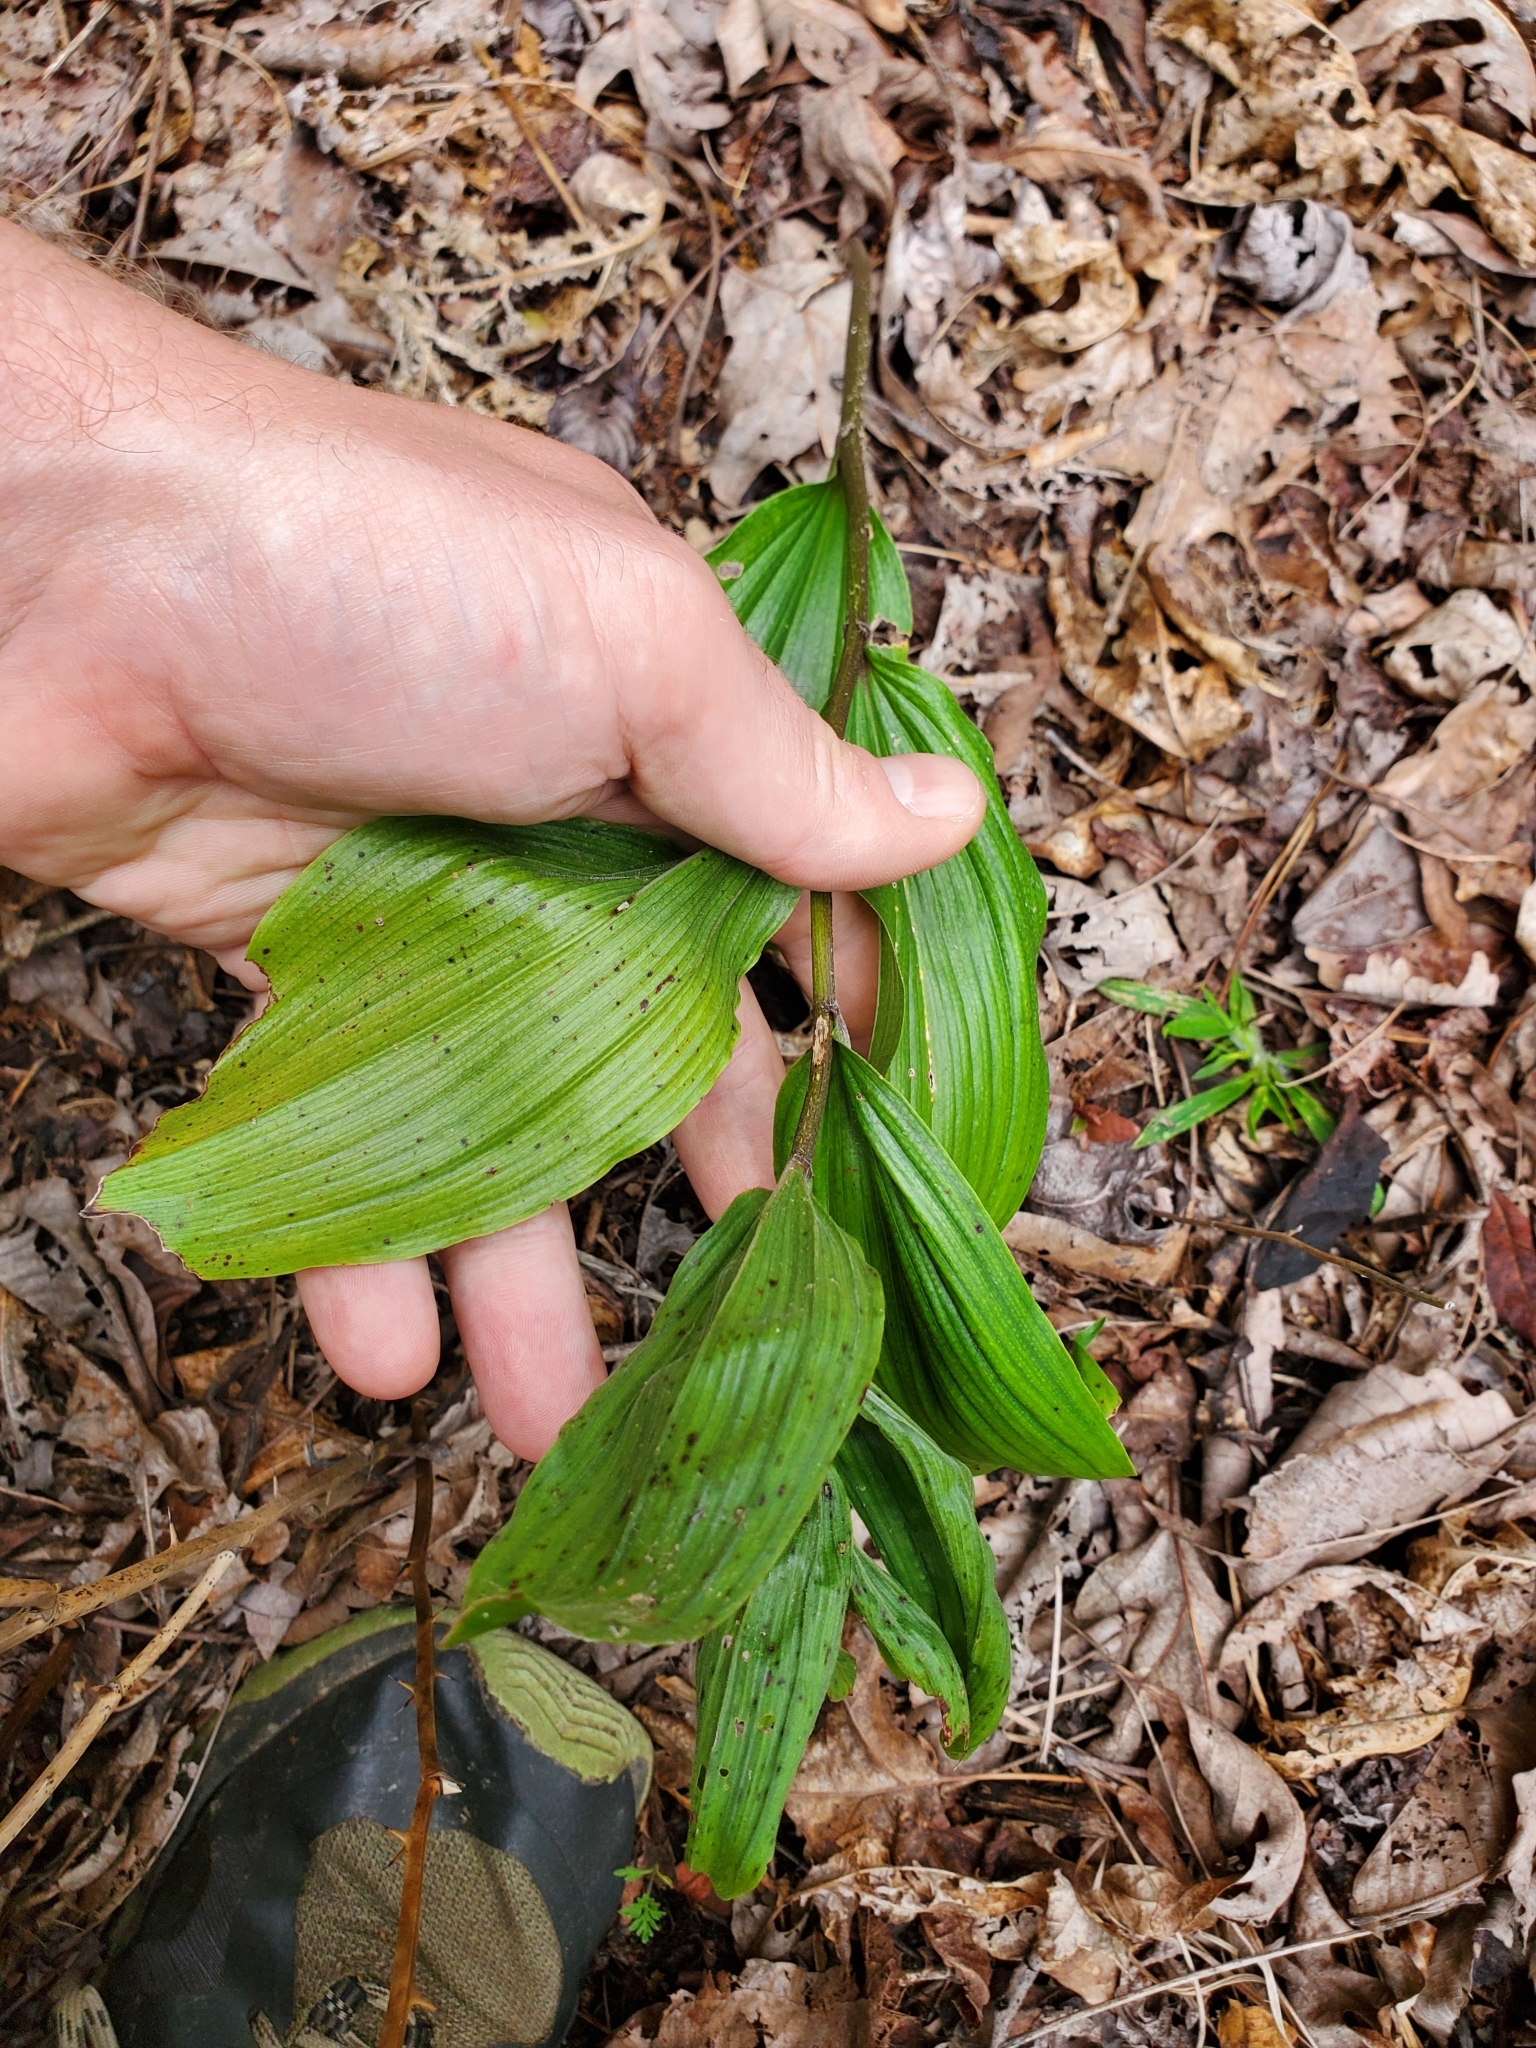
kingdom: Plantae
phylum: Tracheophyta
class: Liliopsida
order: Asparagales
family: Asparagaceae
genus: Maianthemum
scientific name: Maianthemum racemosum
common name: False spikenard
